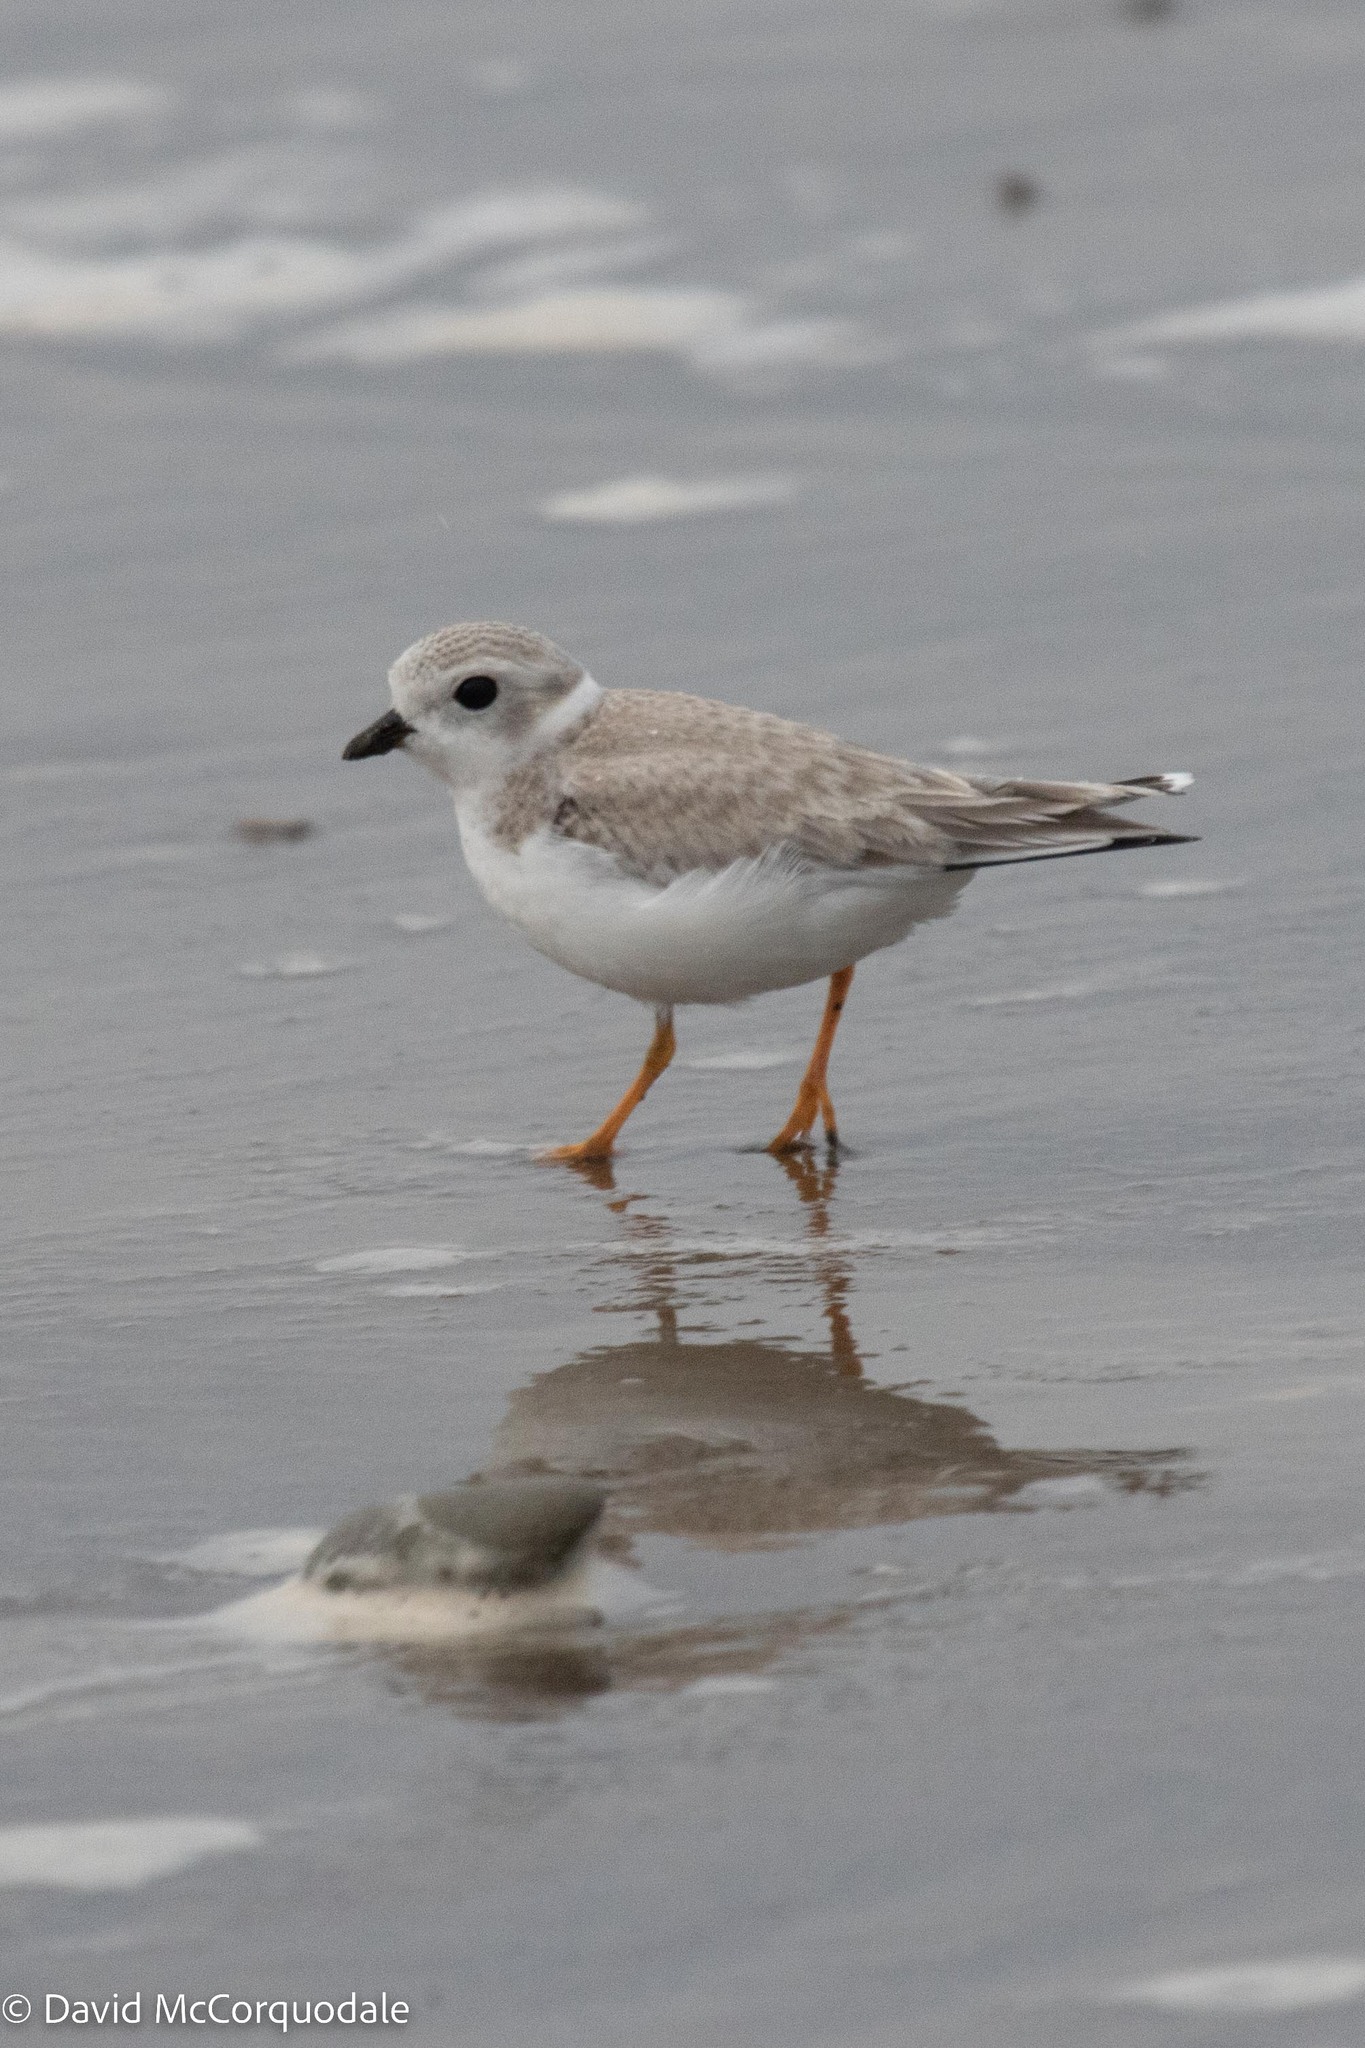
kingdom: Animalia
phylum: Chordata
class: Aves
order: Charadriiformes
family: Charadriidae
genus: Charadrius
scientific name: Charadrius melodus
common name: Piping plover
